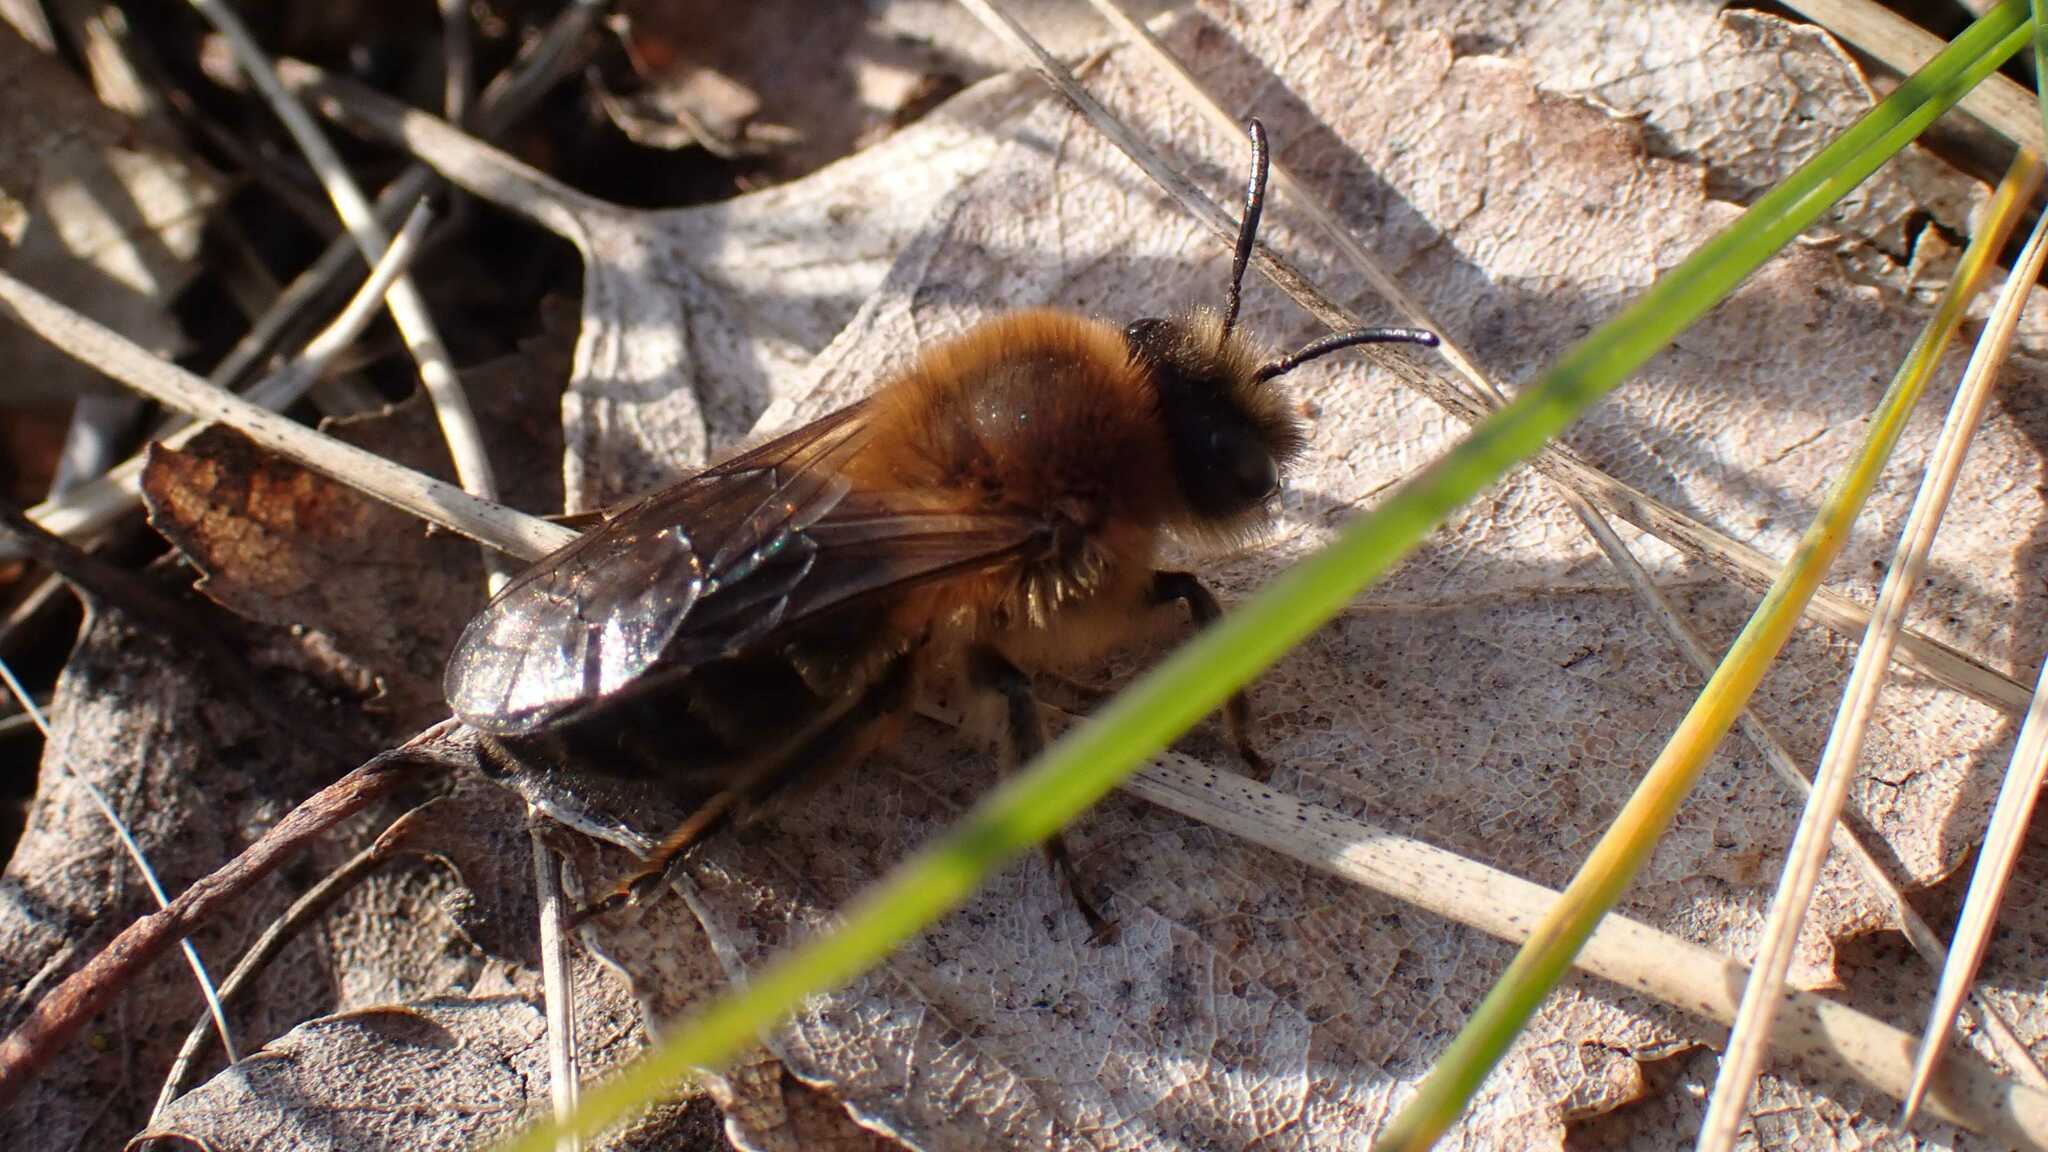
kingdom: Animalia
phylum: Arthropoda
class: Insecta
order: Hymenoptera
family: Colletidae
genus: Colletes
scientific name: Colletes cunicularius
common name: Early colletes
